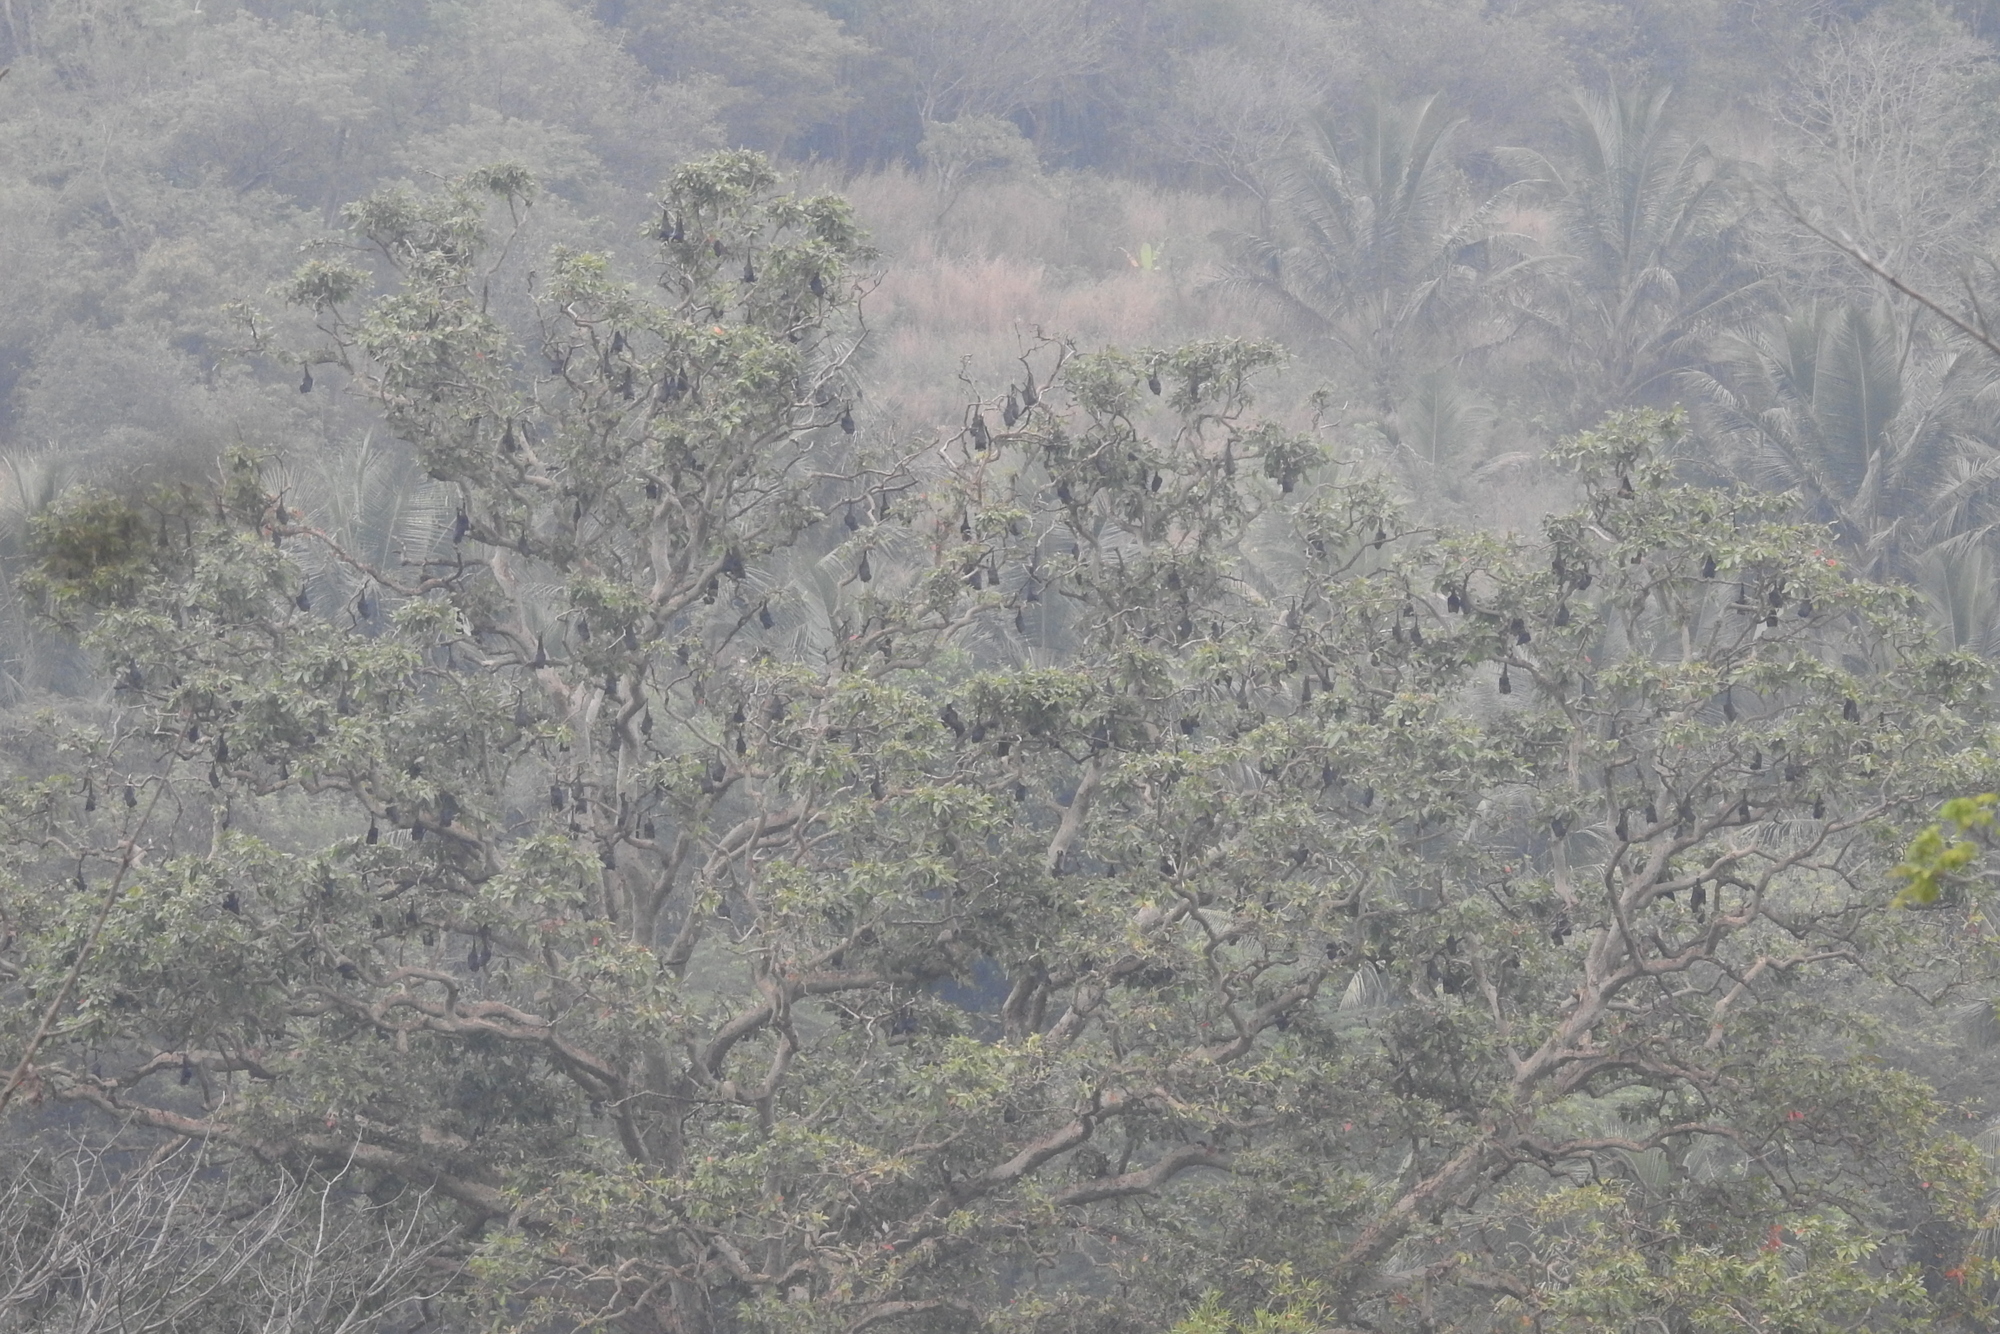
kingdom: Animalia
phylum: Chordata
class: Mammalia
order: Chiroptera
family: Pteropodidae
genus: Pteropus
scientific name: Pteropus vampyrus
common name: Large flying fox
